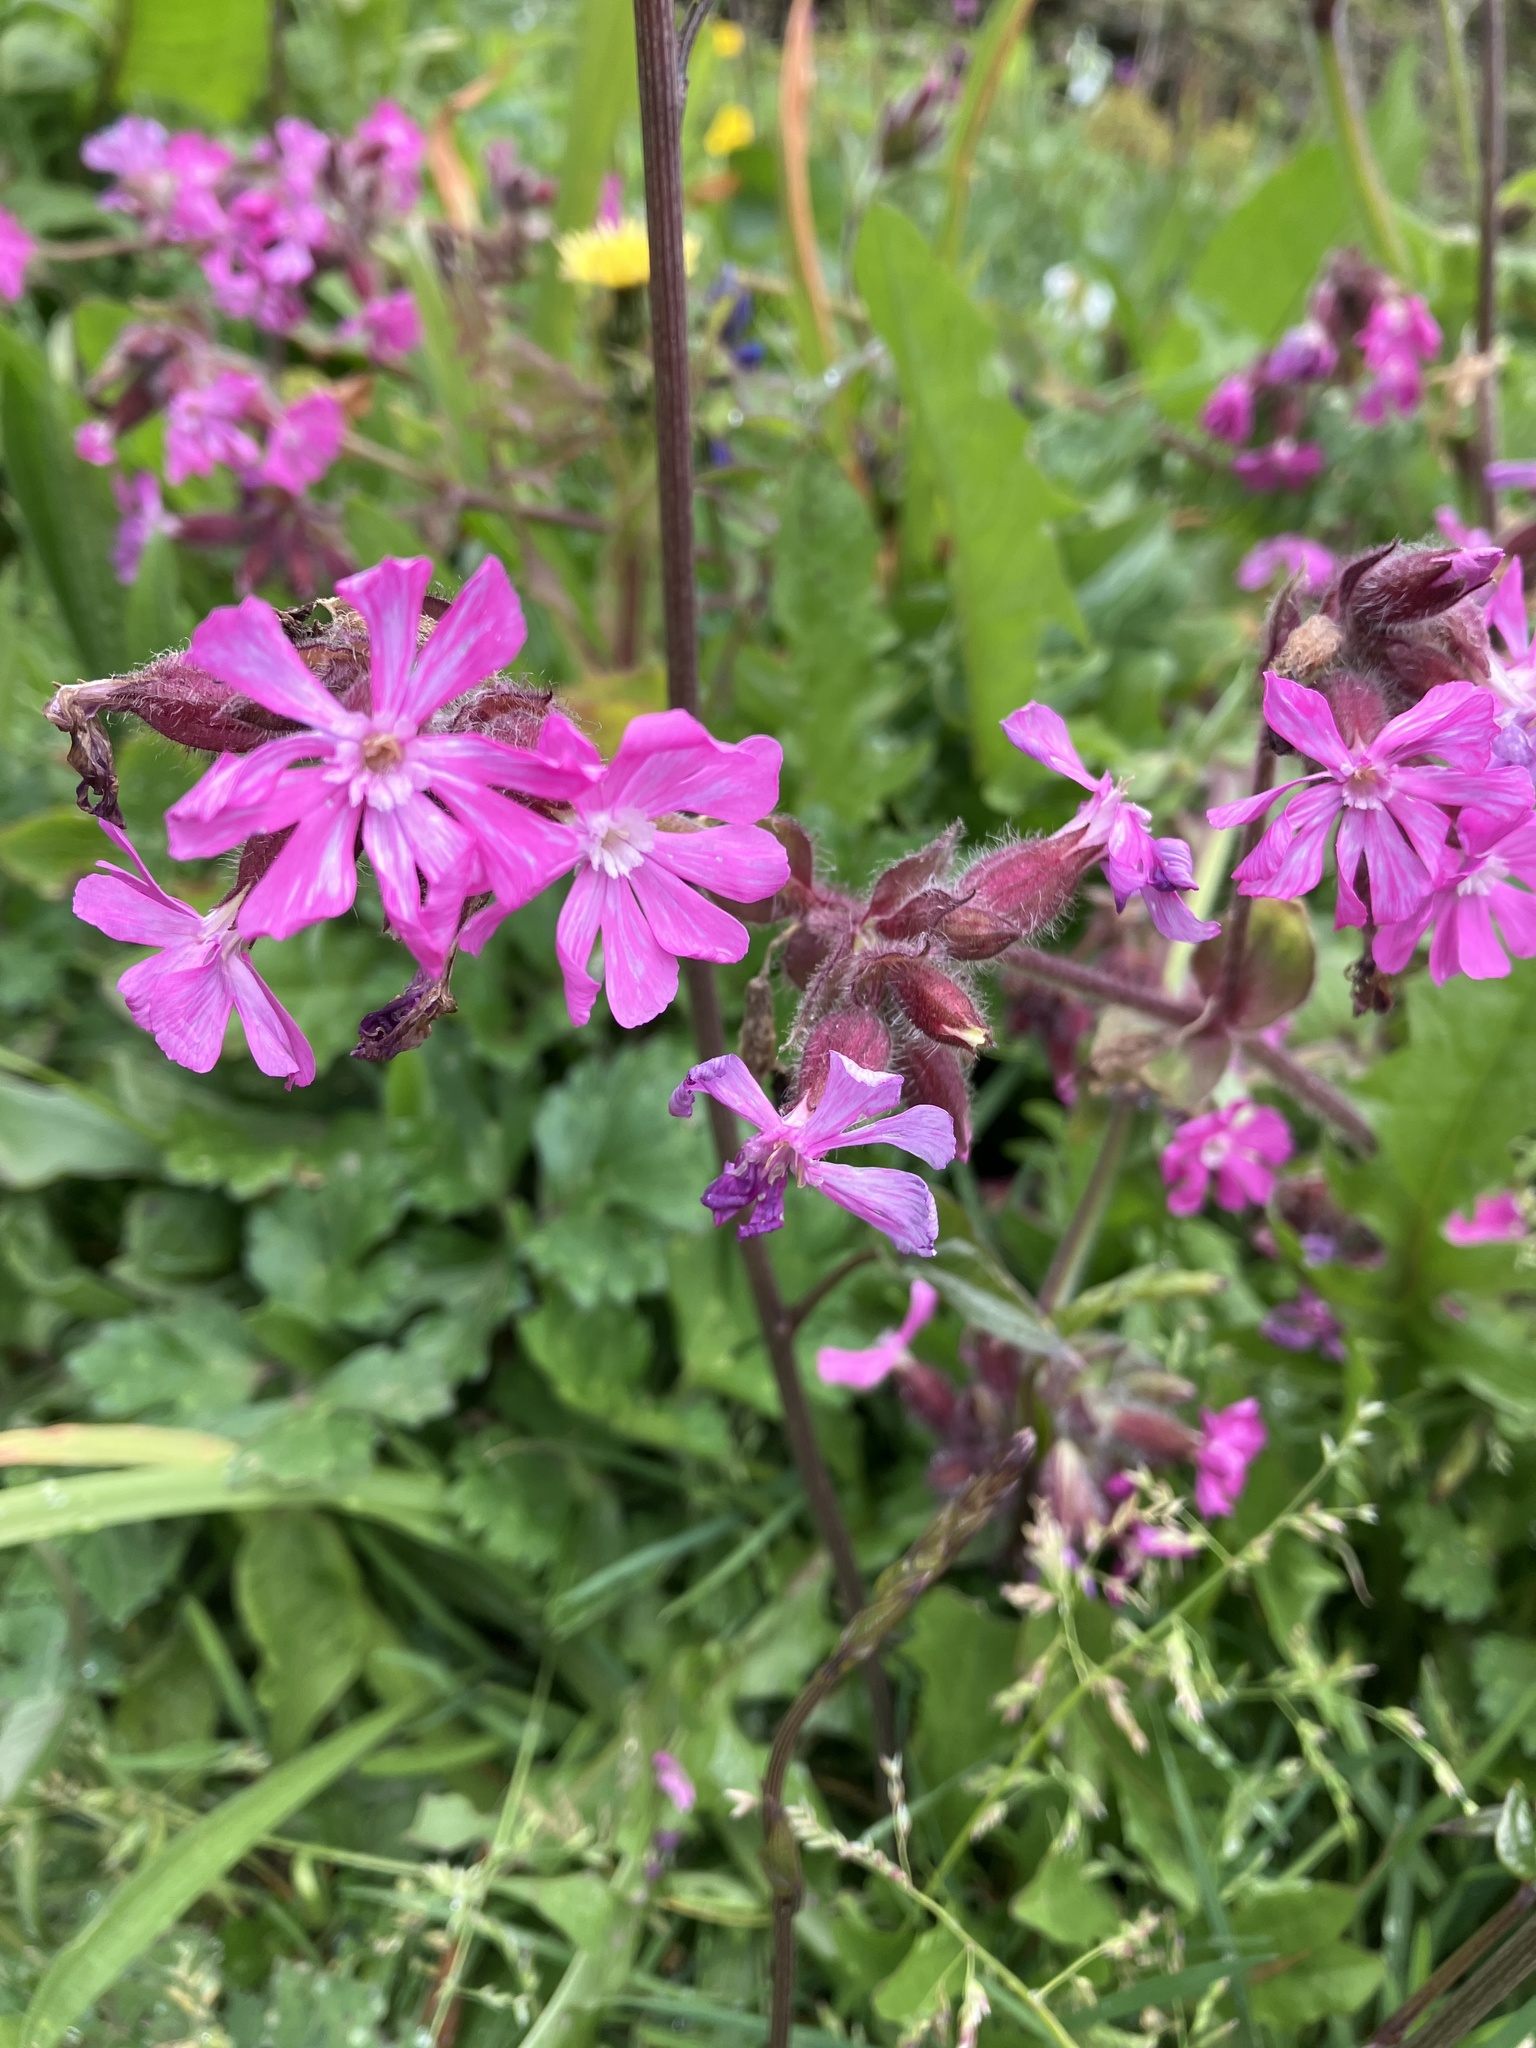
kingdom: Plantae
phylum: Tracheophyta
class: Magnoliopsida
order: Caryophyllales
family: Caryophyllaceae
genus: Silene
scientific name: Silene dioica
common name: Red campion
